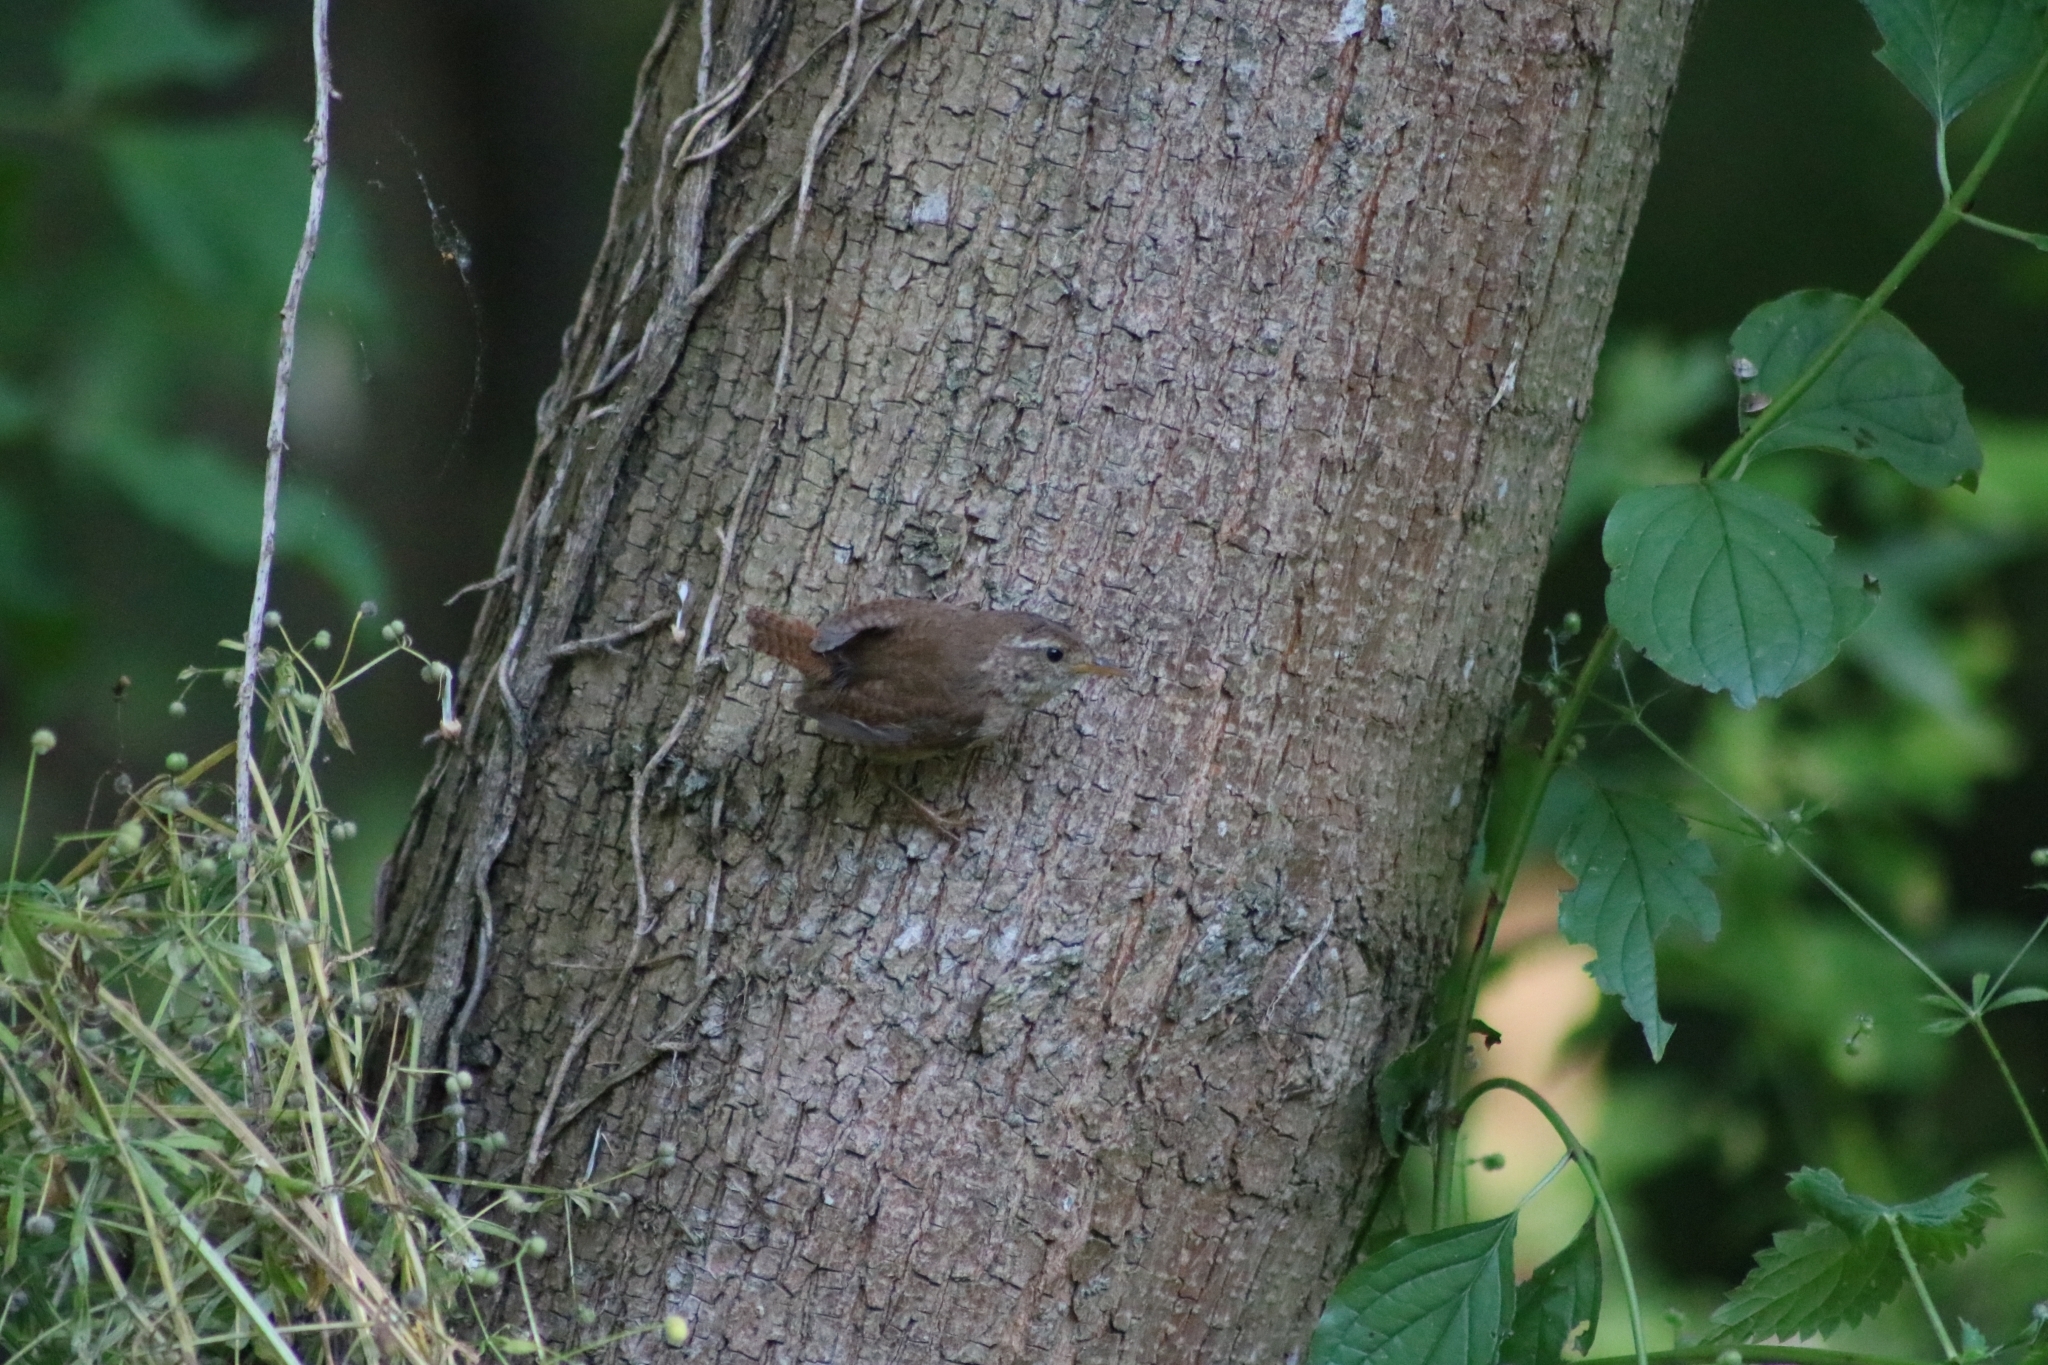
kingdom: Animalia
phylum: Chordata
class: Aves
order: Passeriformes
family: Troglodytidae
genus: Troglodytes
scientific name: Troglodytes troglodytes
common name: Eurasian wren
